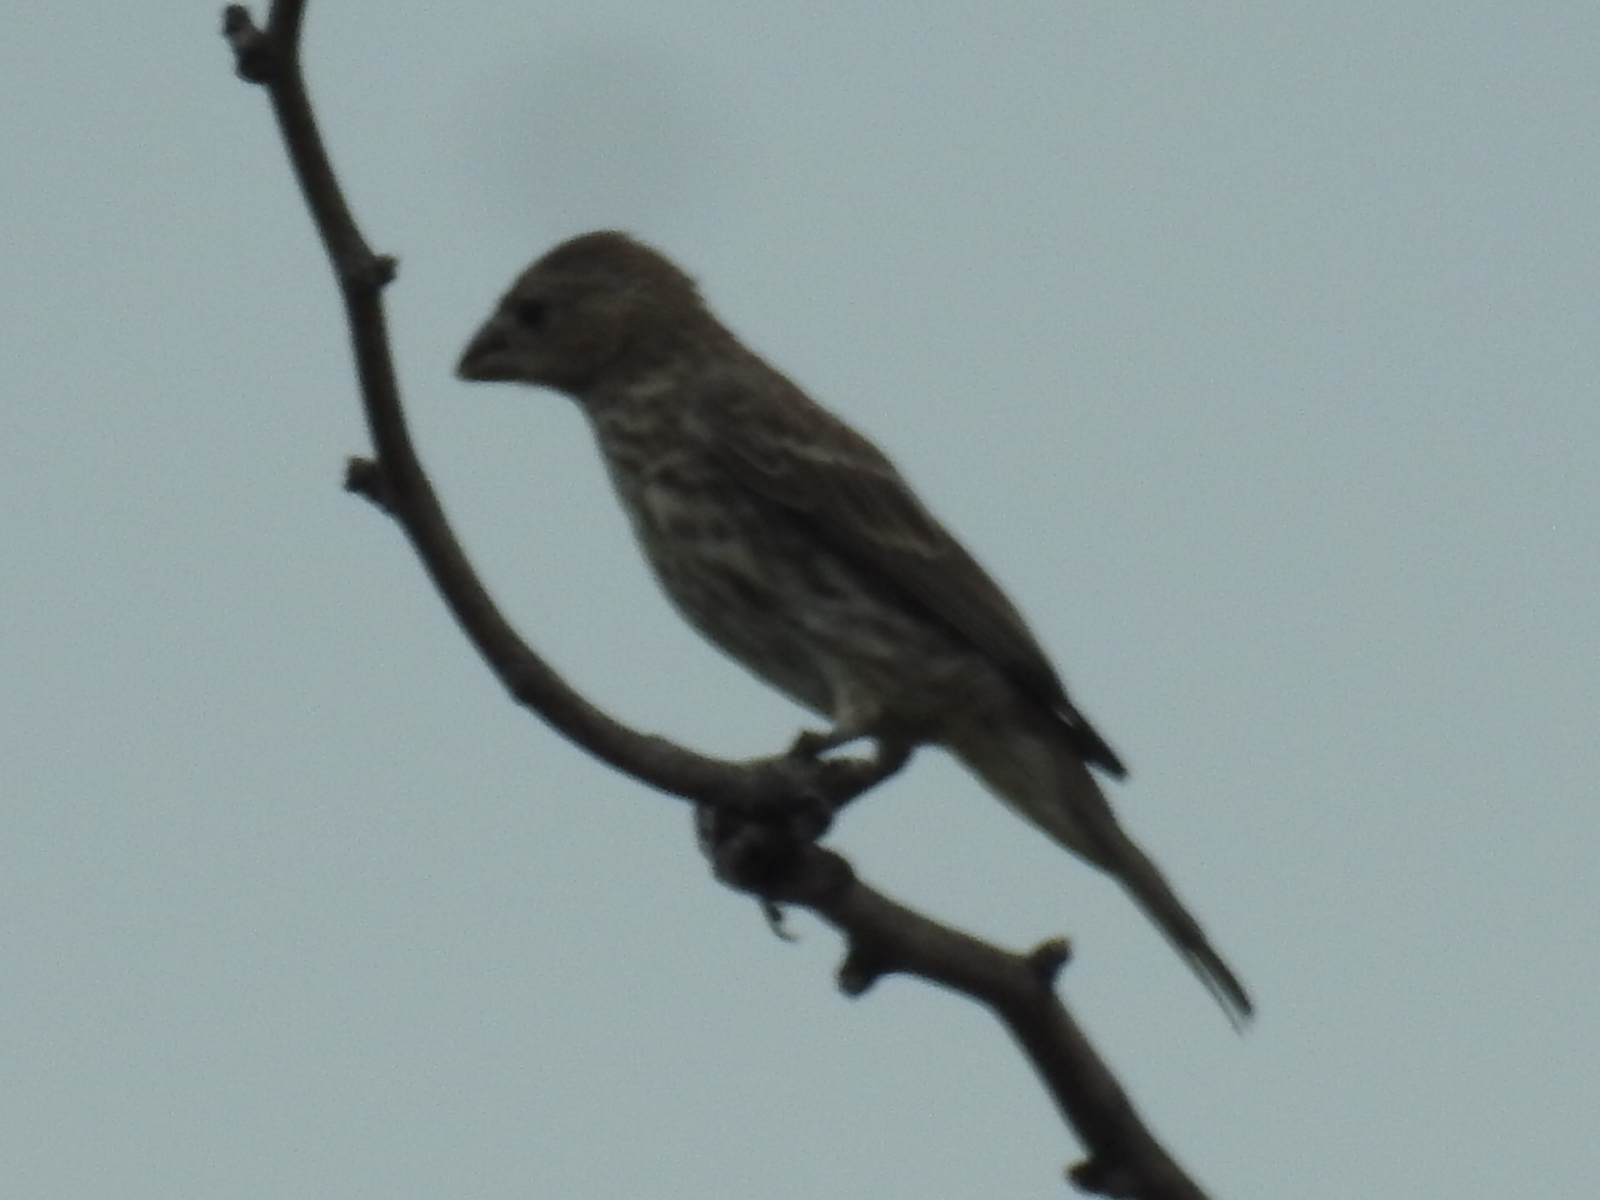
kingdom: Animalia
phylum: Chordata
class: Aves
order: Passeriformes
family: Fringillidae
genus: Haemorhous
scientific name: Haemorhous mexicanus
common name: House finch
